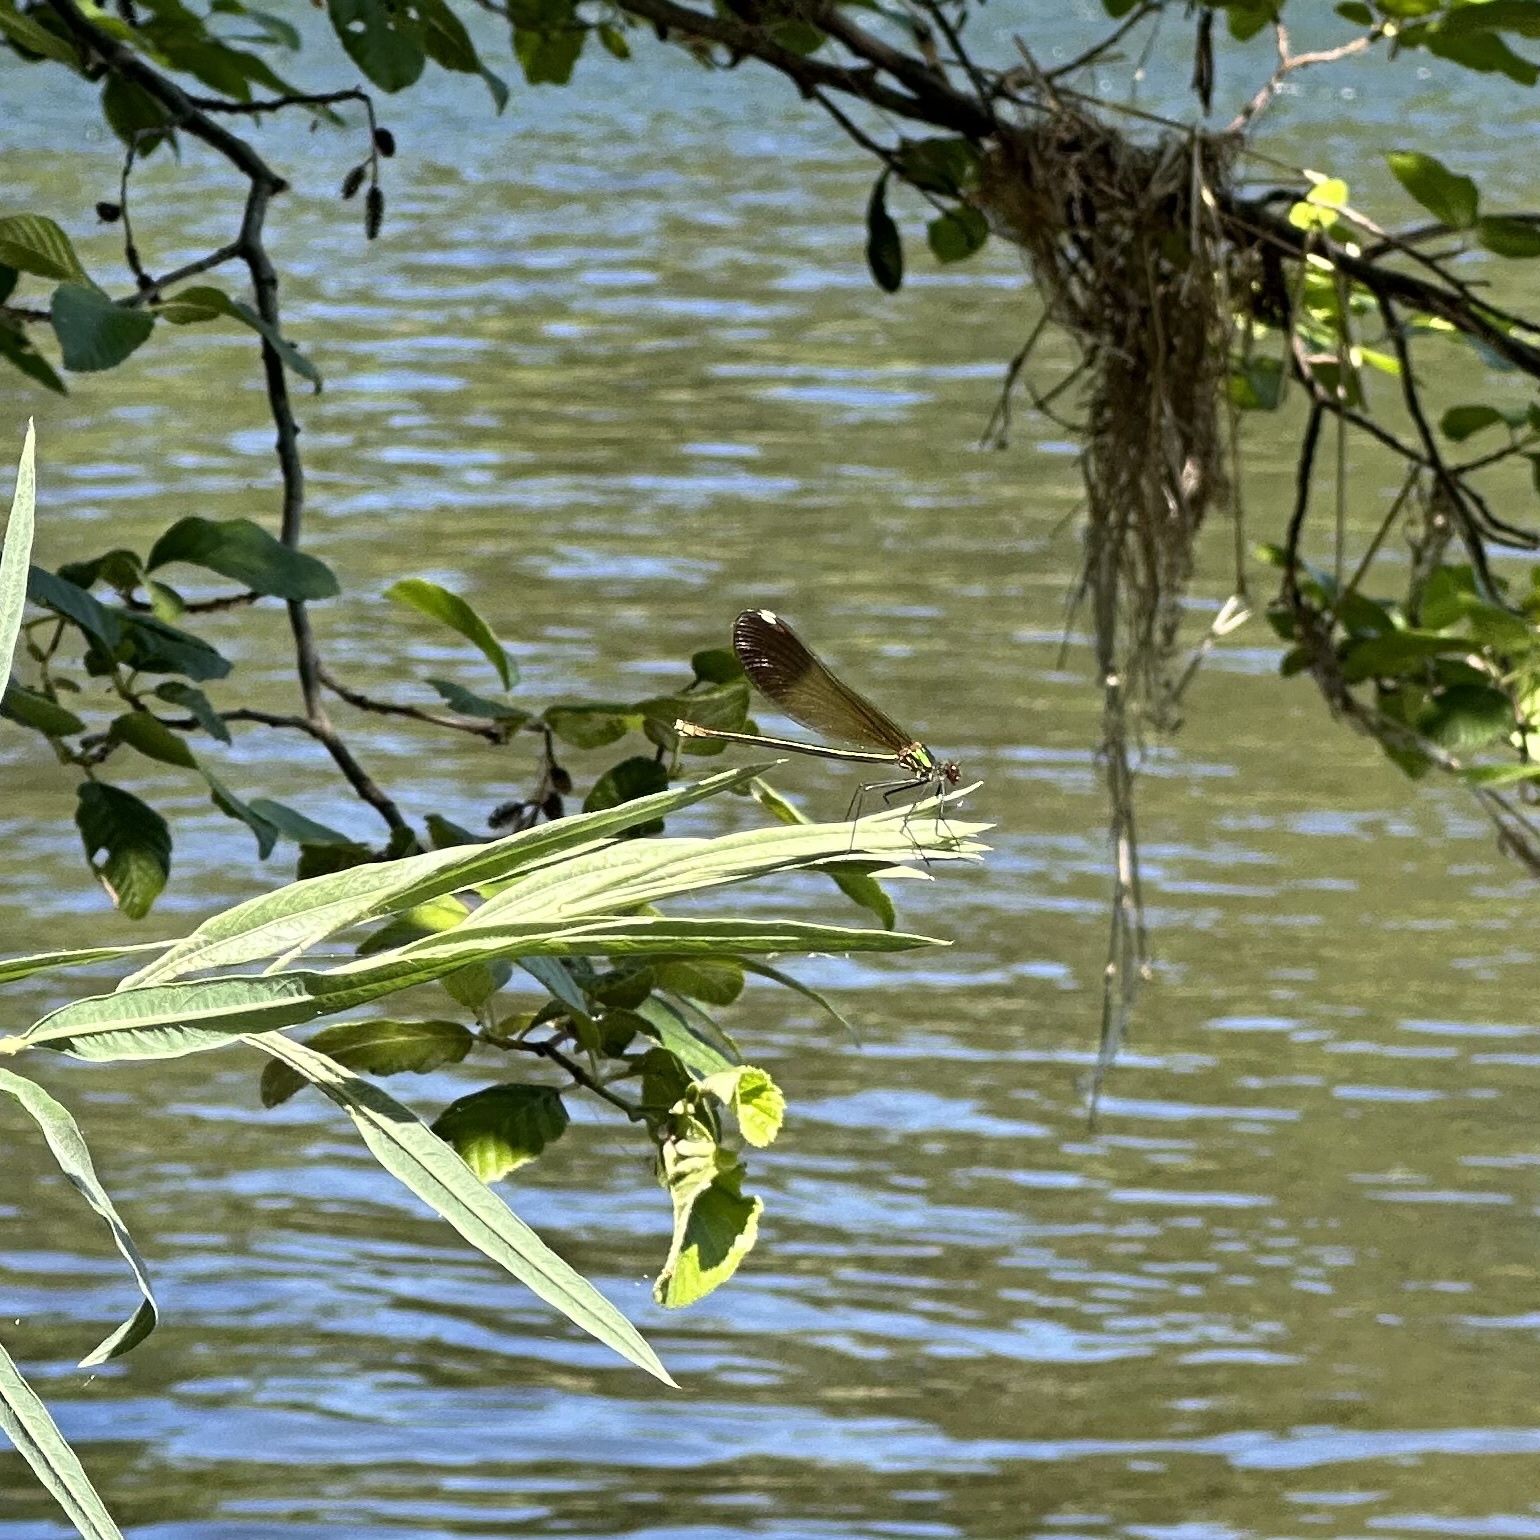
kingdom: Animalia
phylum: Arthropoda
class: Insecta
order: Odonata
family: Calopterygidae
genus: Calopteryx
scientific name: Calopteryx aequabilis
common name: River jewelwing
